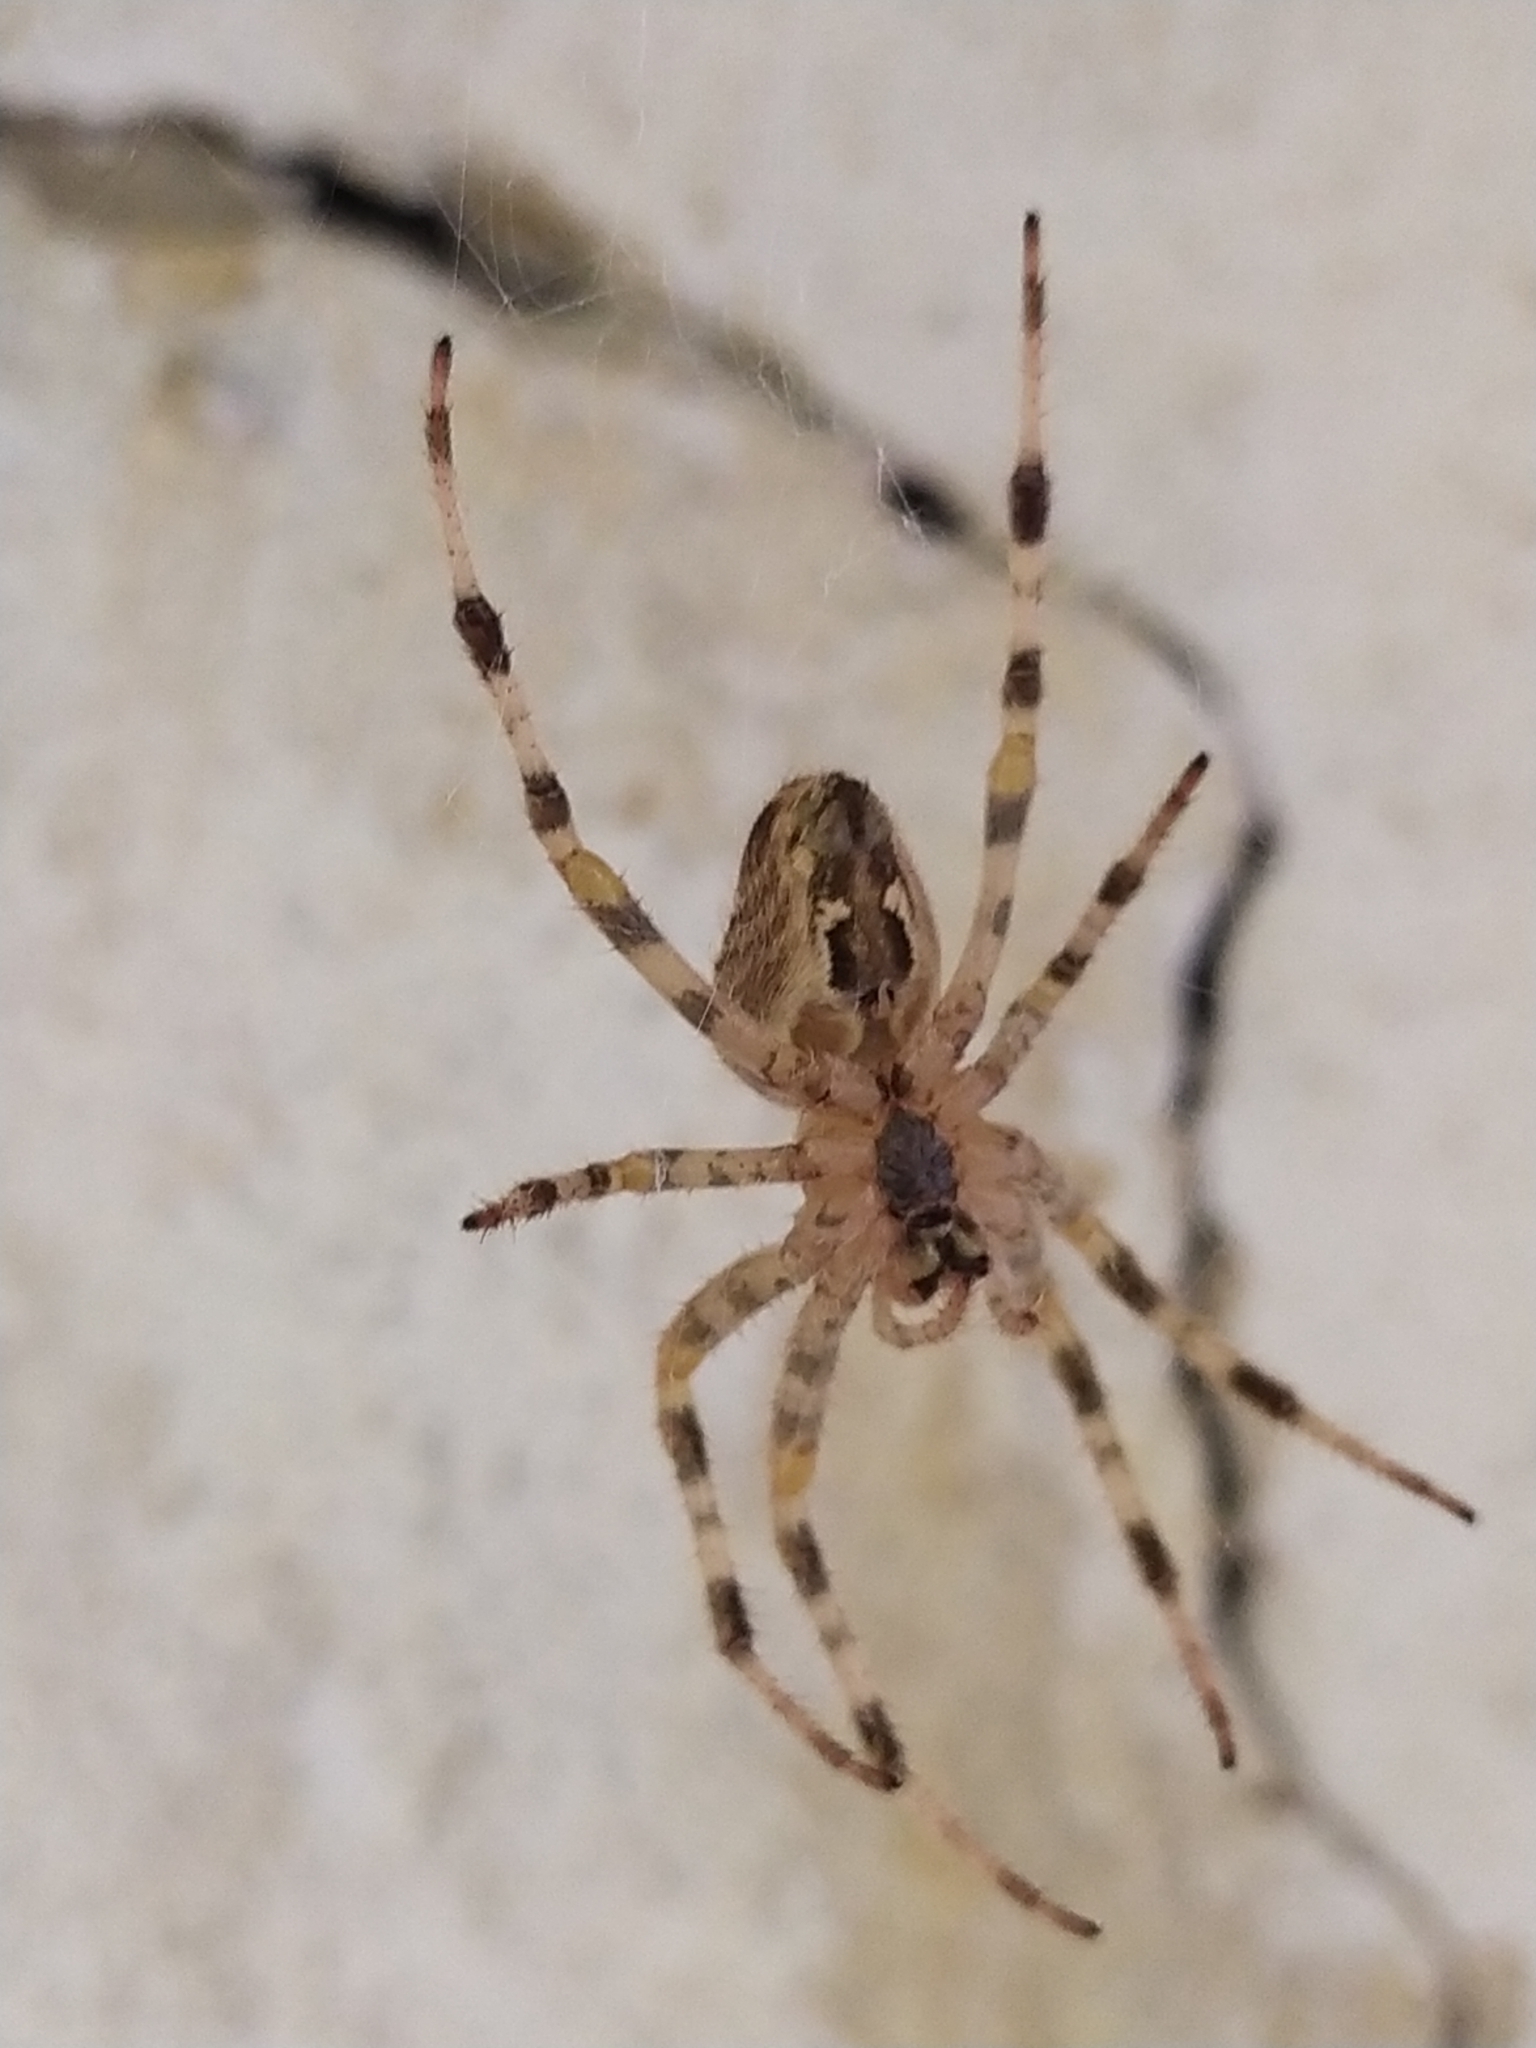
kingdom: Animalia
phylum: Arthropoda
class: Arachnida
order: Araneae
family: Araneidae
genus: Araneus
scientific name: Araneus diadematus
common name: Cross orbweaver
